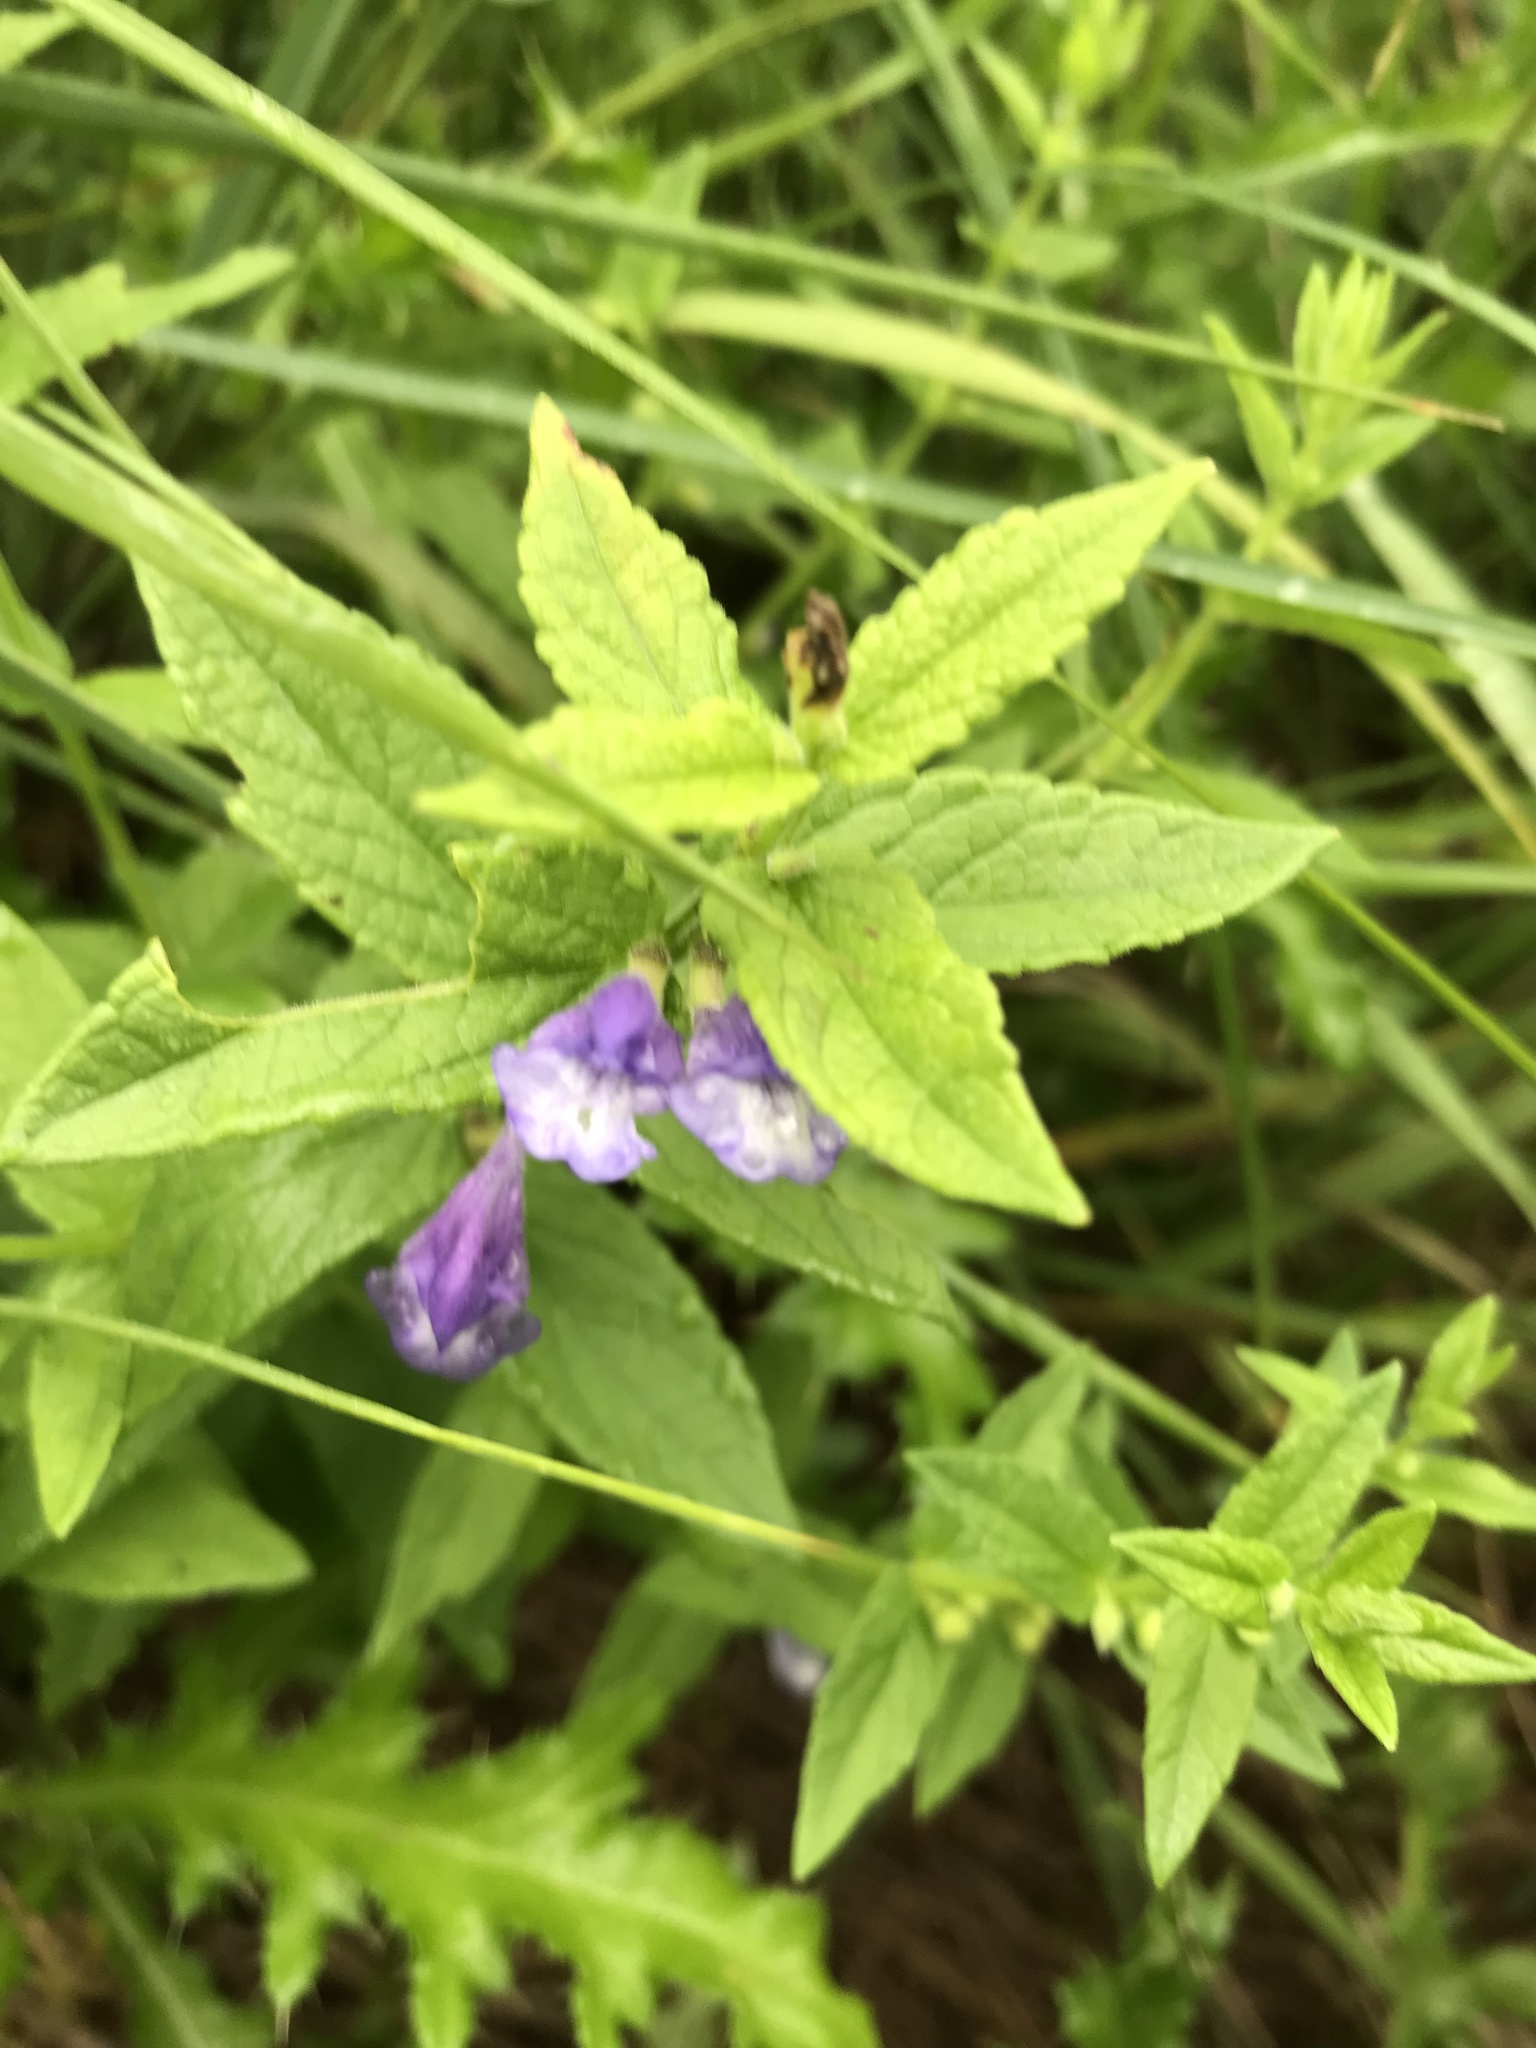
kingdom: Plantae
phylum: Tracheophyta
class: Magnoliopsida
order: Lamiales
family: Lamiaceae
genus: Scutellaria
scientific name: Scutellaria galericulata
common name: Skullcap
